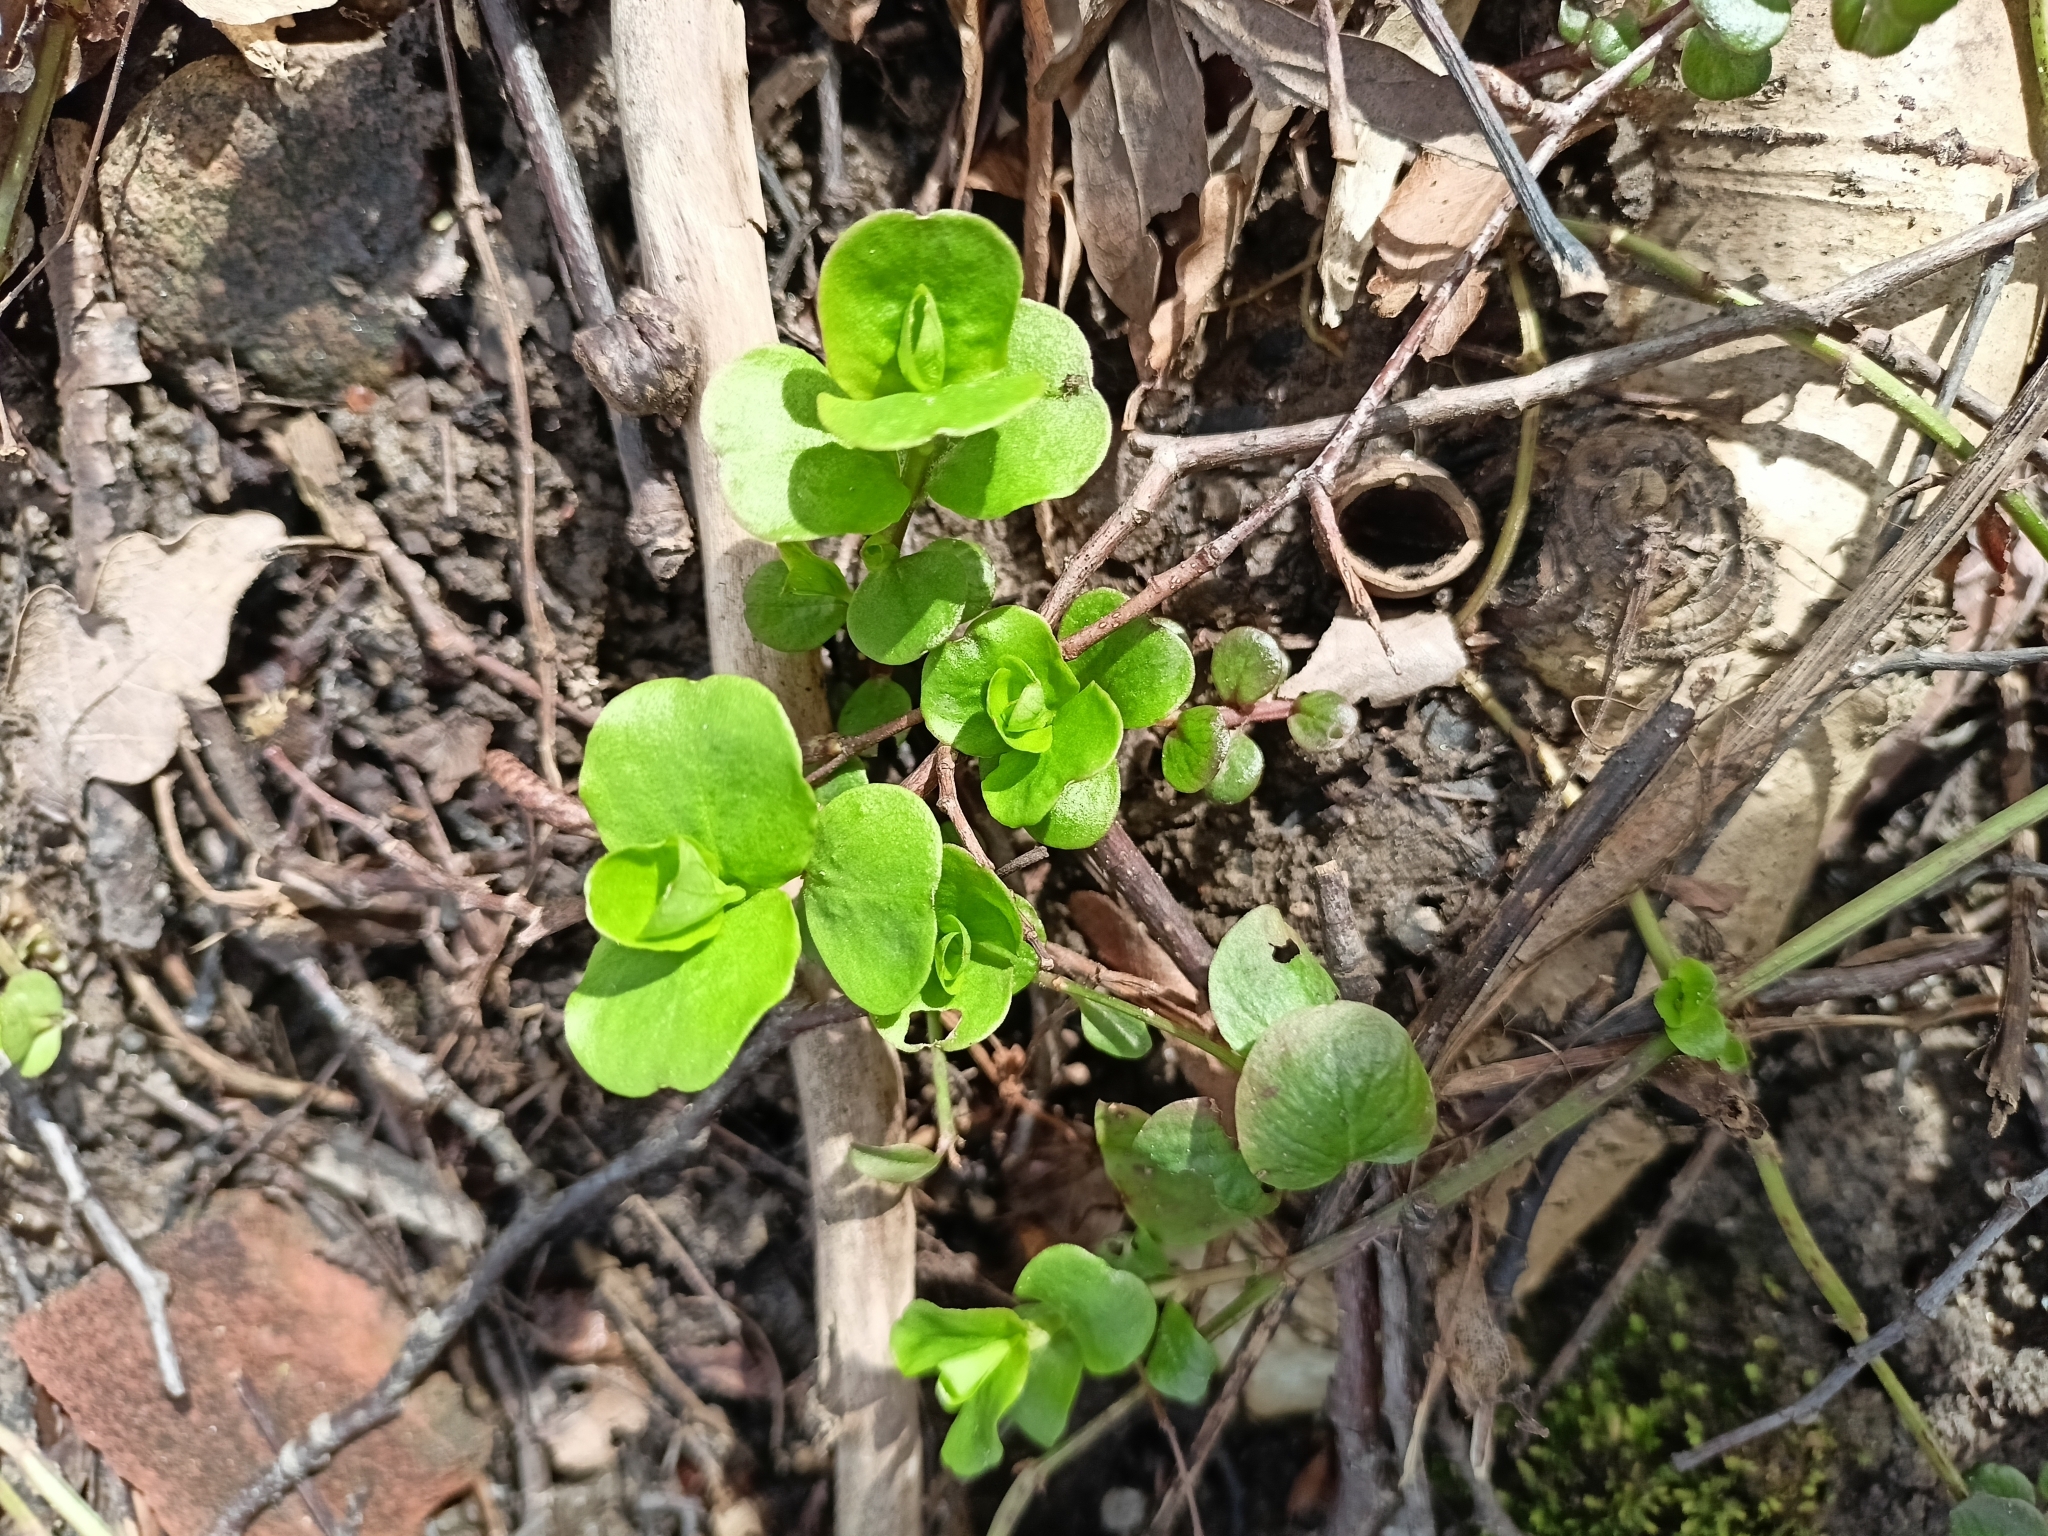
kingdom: Plantae
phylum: Tracheophyta
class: Magnoliopsida
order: Ericales
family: Primulaceae
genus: Lysimachia
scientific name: Lysimachia nummularia
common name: Moneywort
